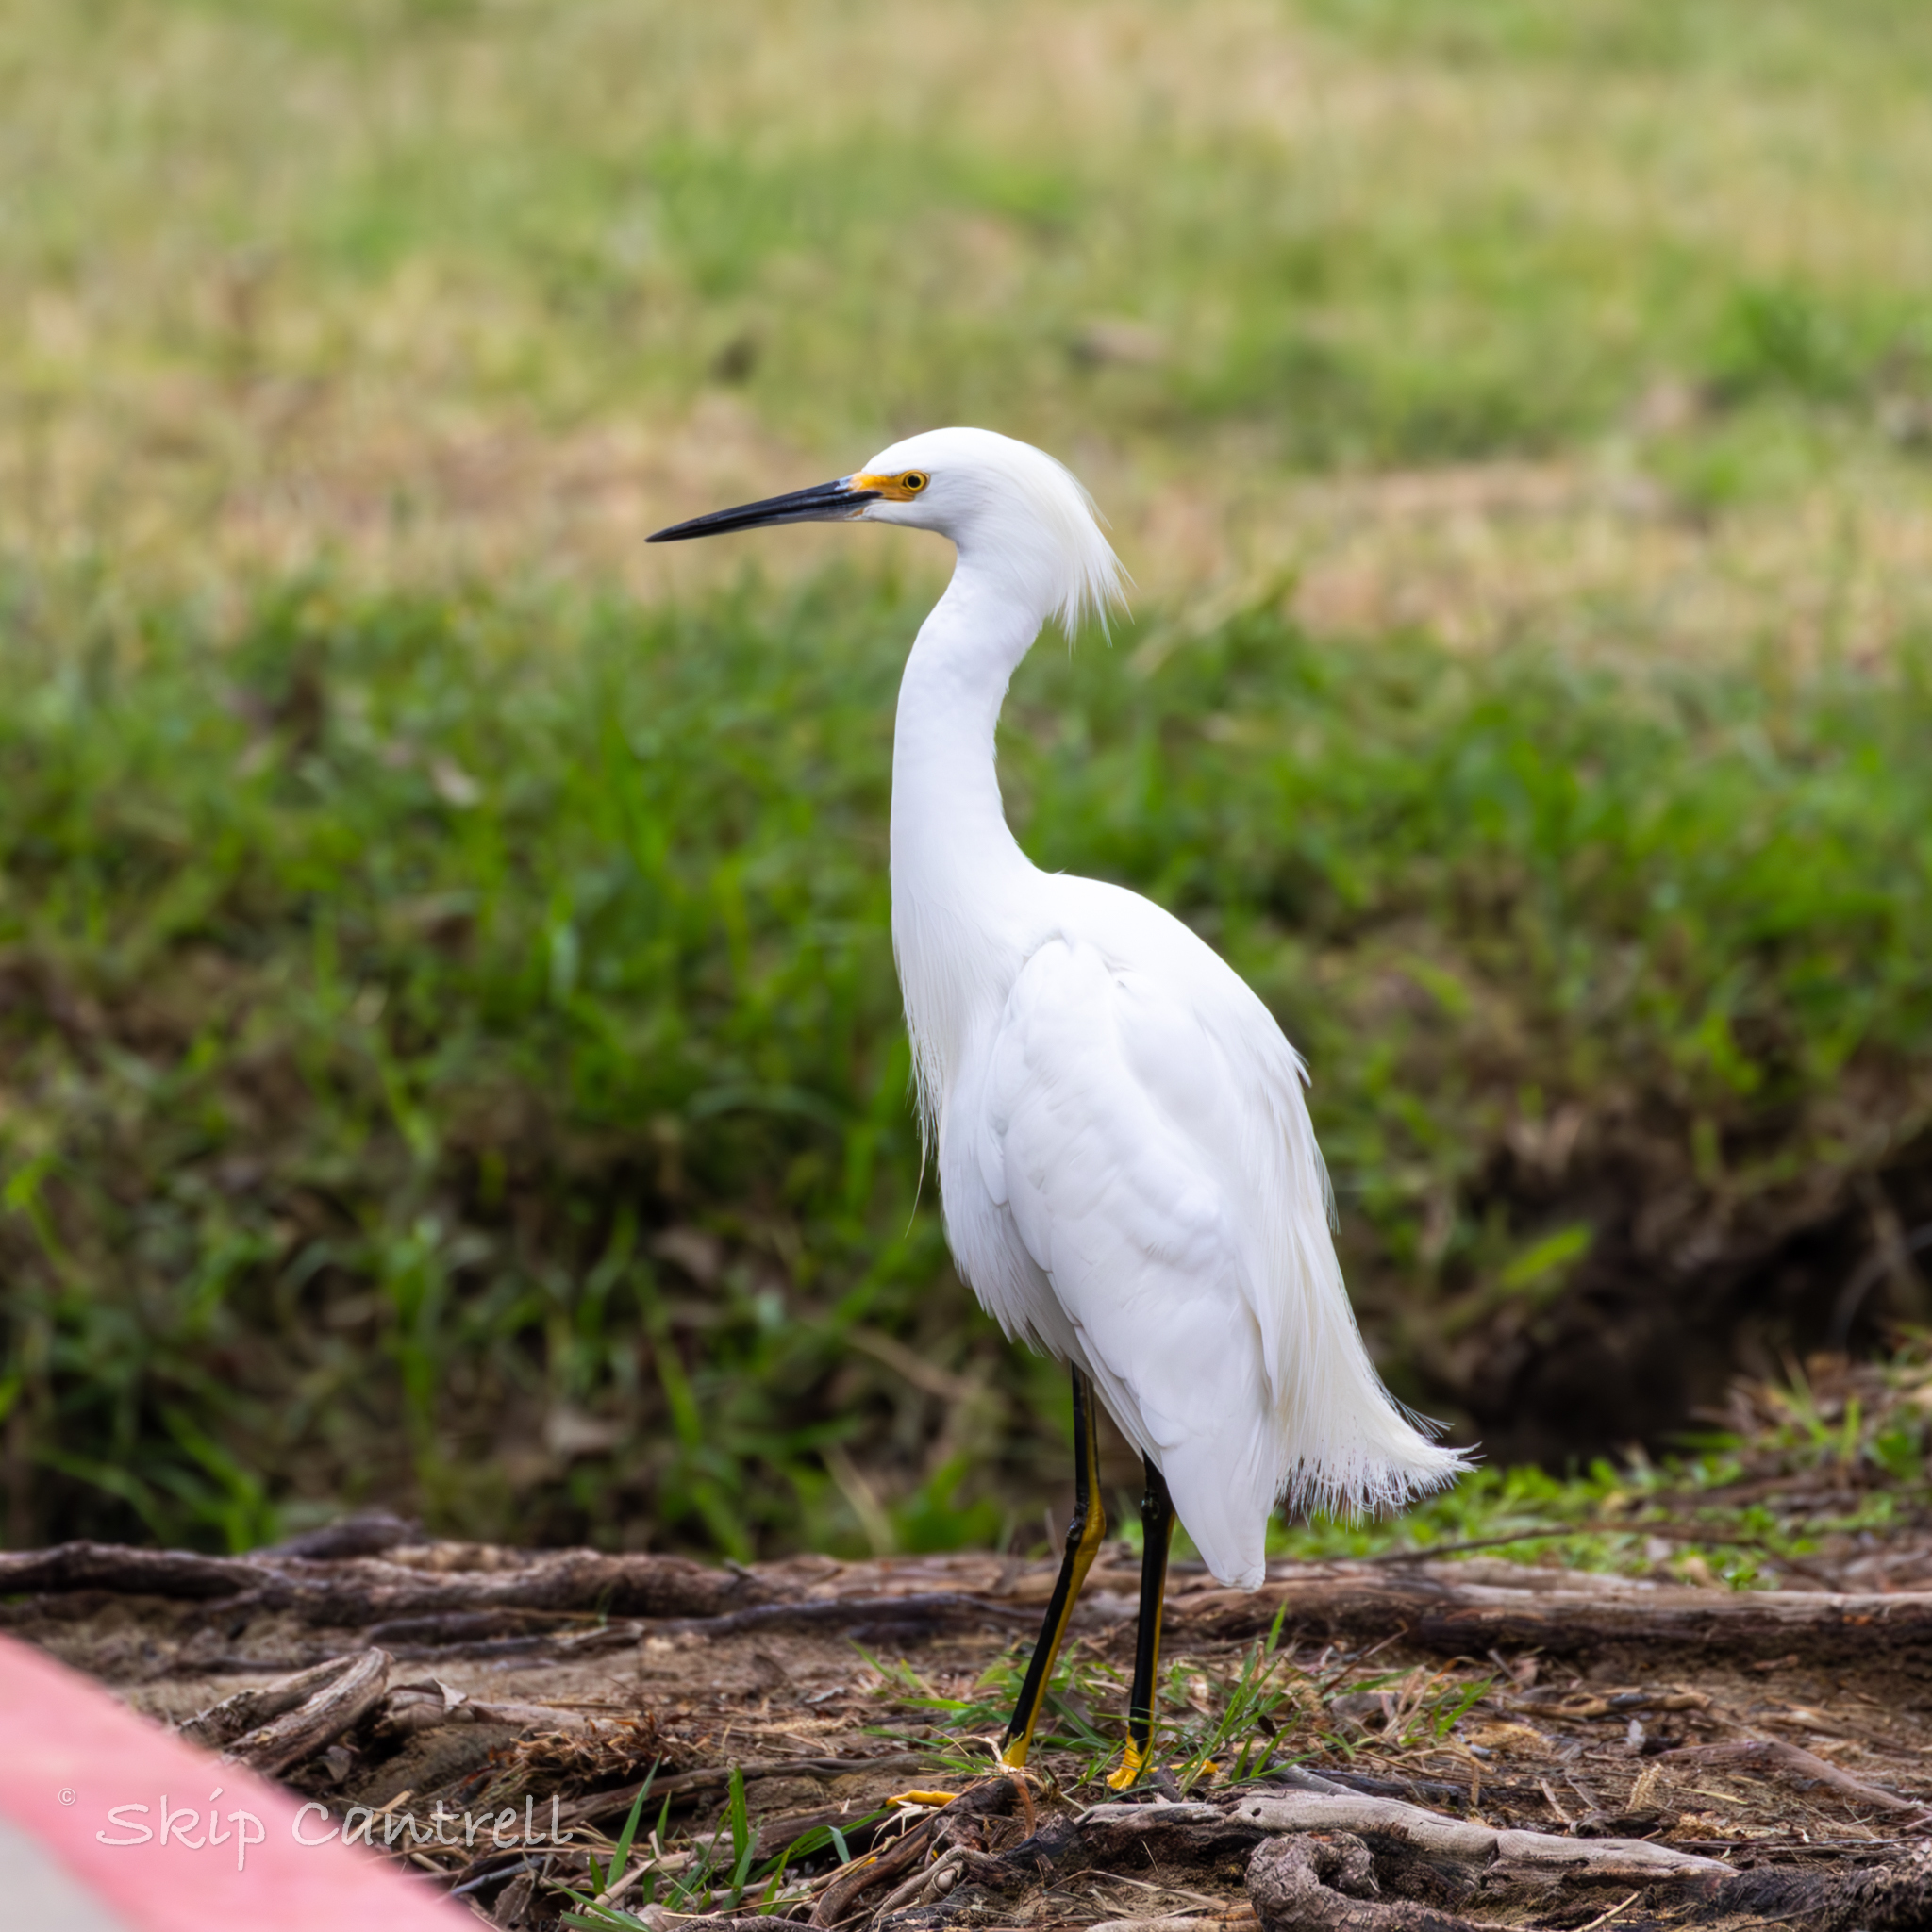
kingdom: Animalia
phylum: Chordata
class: Aves
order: Pelecaniformes
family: Ardeidae
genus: Egretta
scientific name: Egretta thula
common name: Snowy egret
